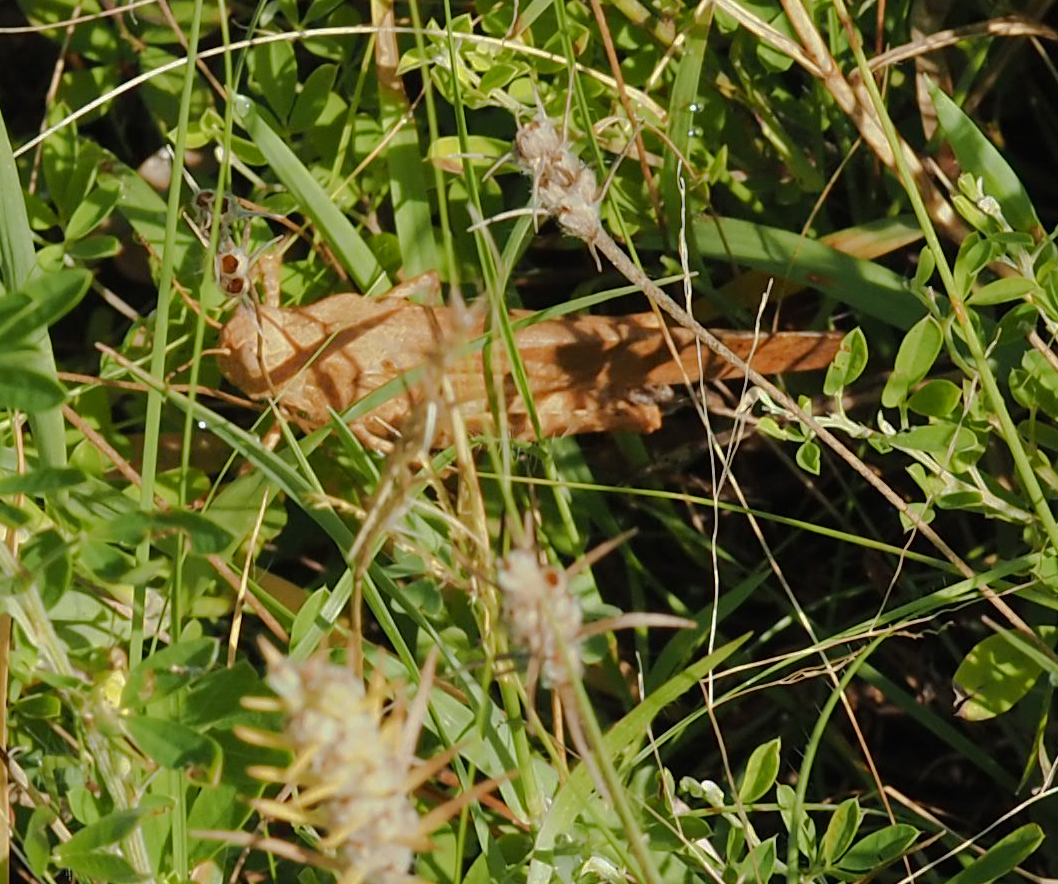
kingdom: Animalia
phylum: Arthropoda
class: Insecta
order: Orthoptera
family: Acrididae
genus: Dissosteira
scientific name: Dissosteira carolina
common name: Carolina grasshopper
